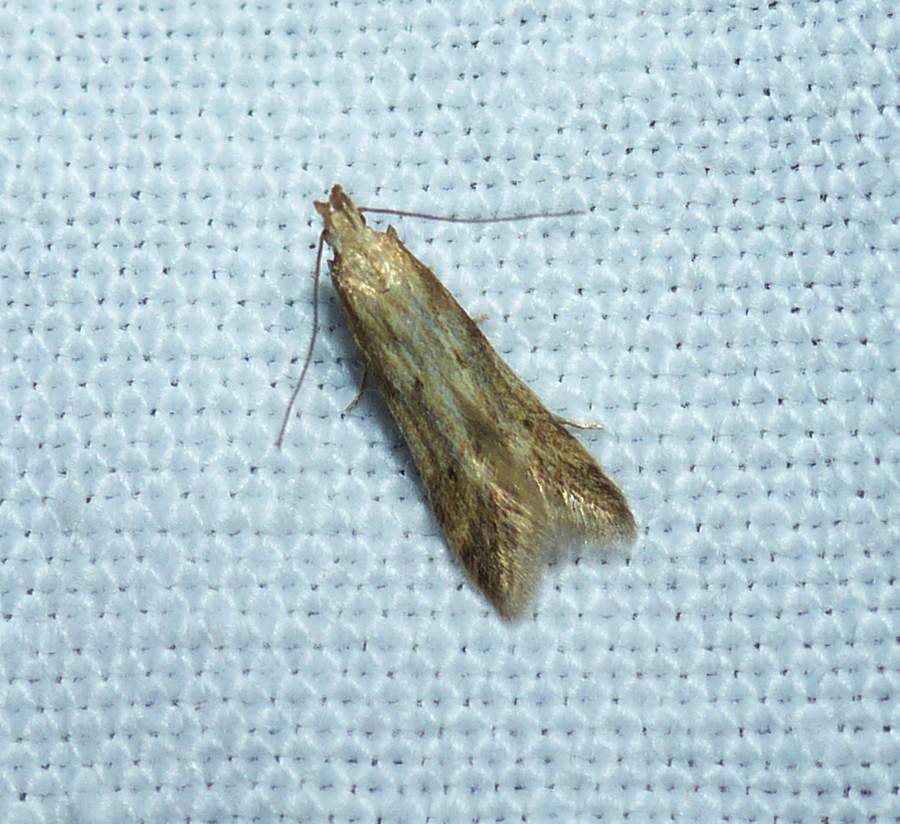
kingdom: Animalia
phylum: Arthropoda
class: Insecta
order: Lepidoptera
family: Gelechiidae
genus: Metzneria
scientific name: Metzneria lappella
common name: Burdock neb
